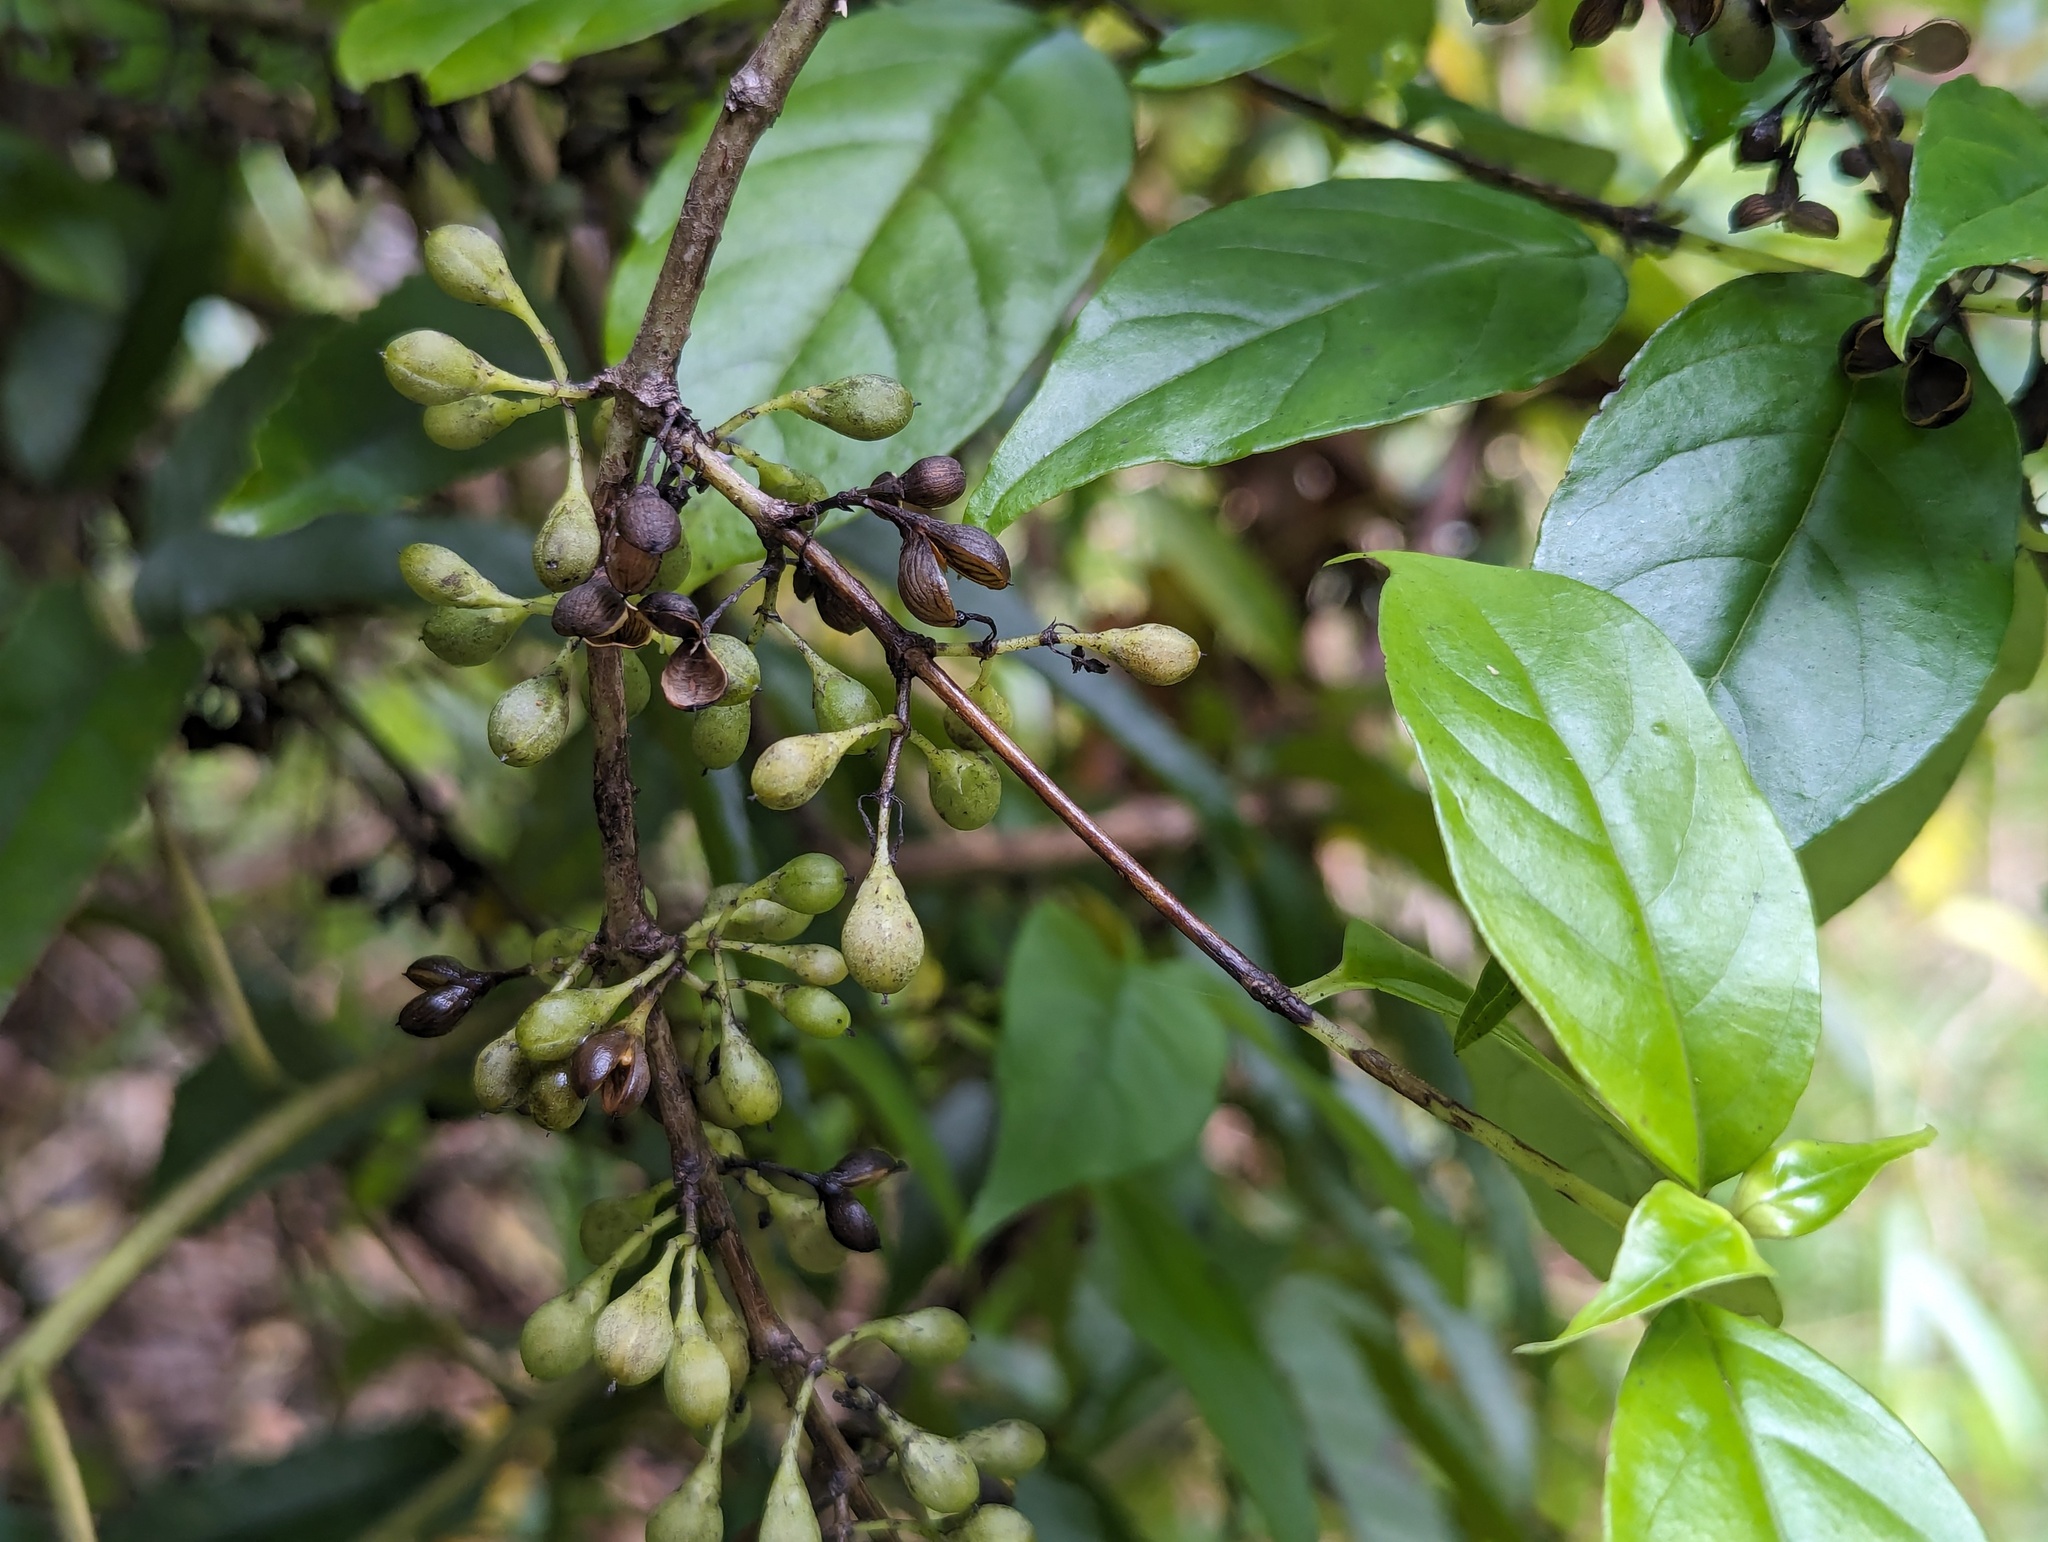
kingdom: Plantae
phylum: Tracheophyta
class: Magnoliopsida
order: Gentianales
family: Loganiaceae
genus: Geniostoma
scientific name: Geniostoma ligustrifolium
